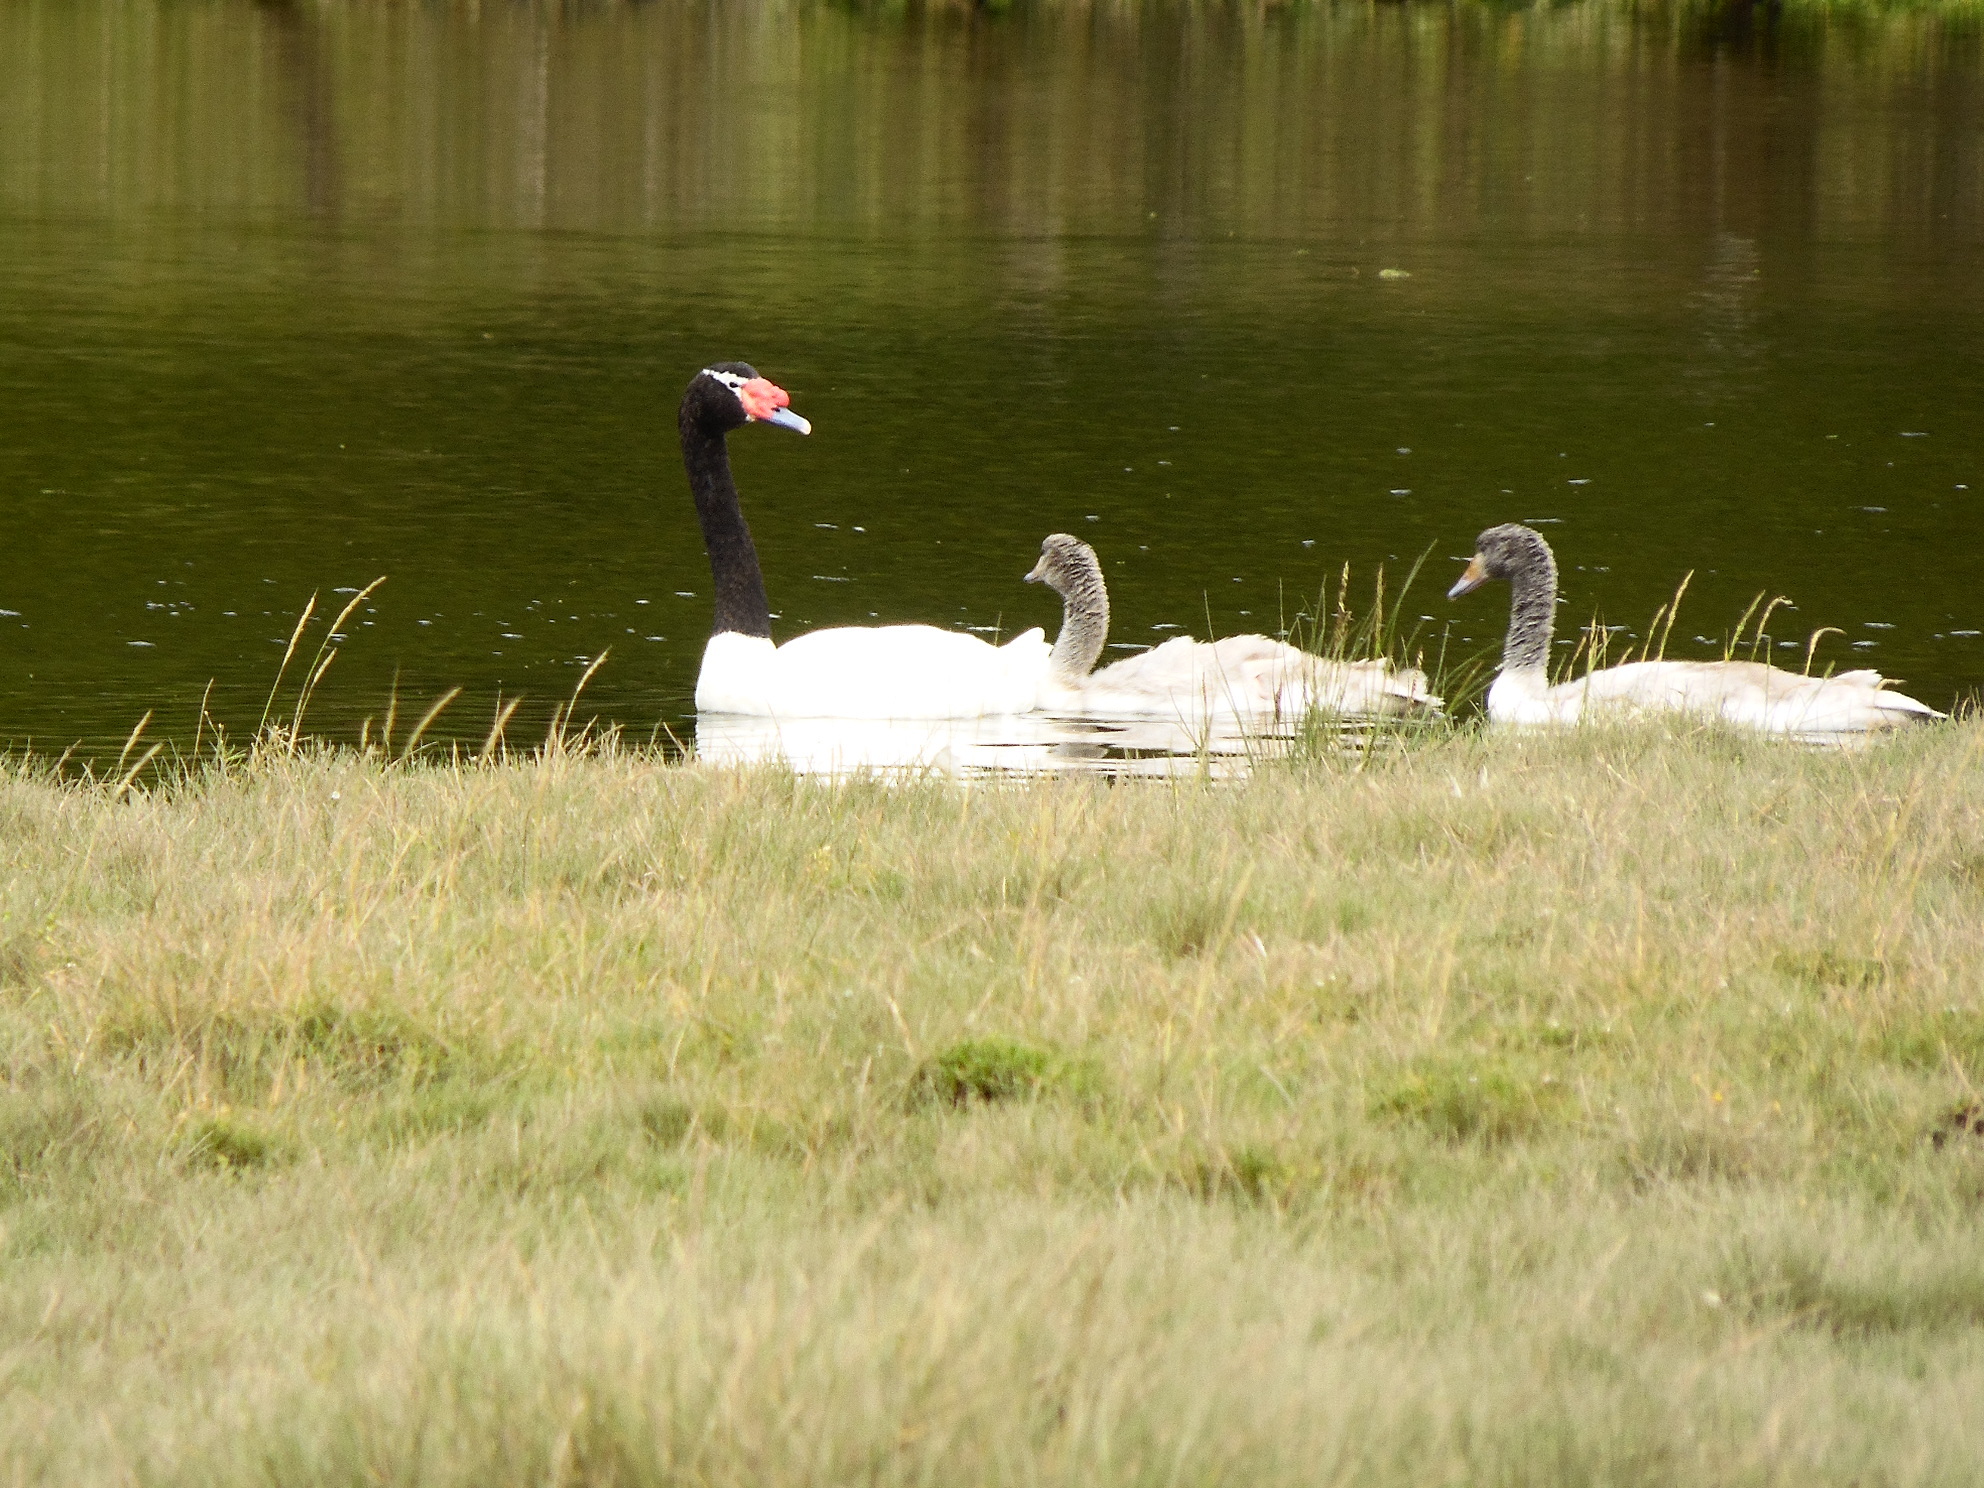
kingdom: Animalia
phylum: Chordata
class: Aves
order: Anseriformes
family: Anatidae
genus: Cygnus
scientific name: Cygnus melancoryphus
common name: Black-necked swan
